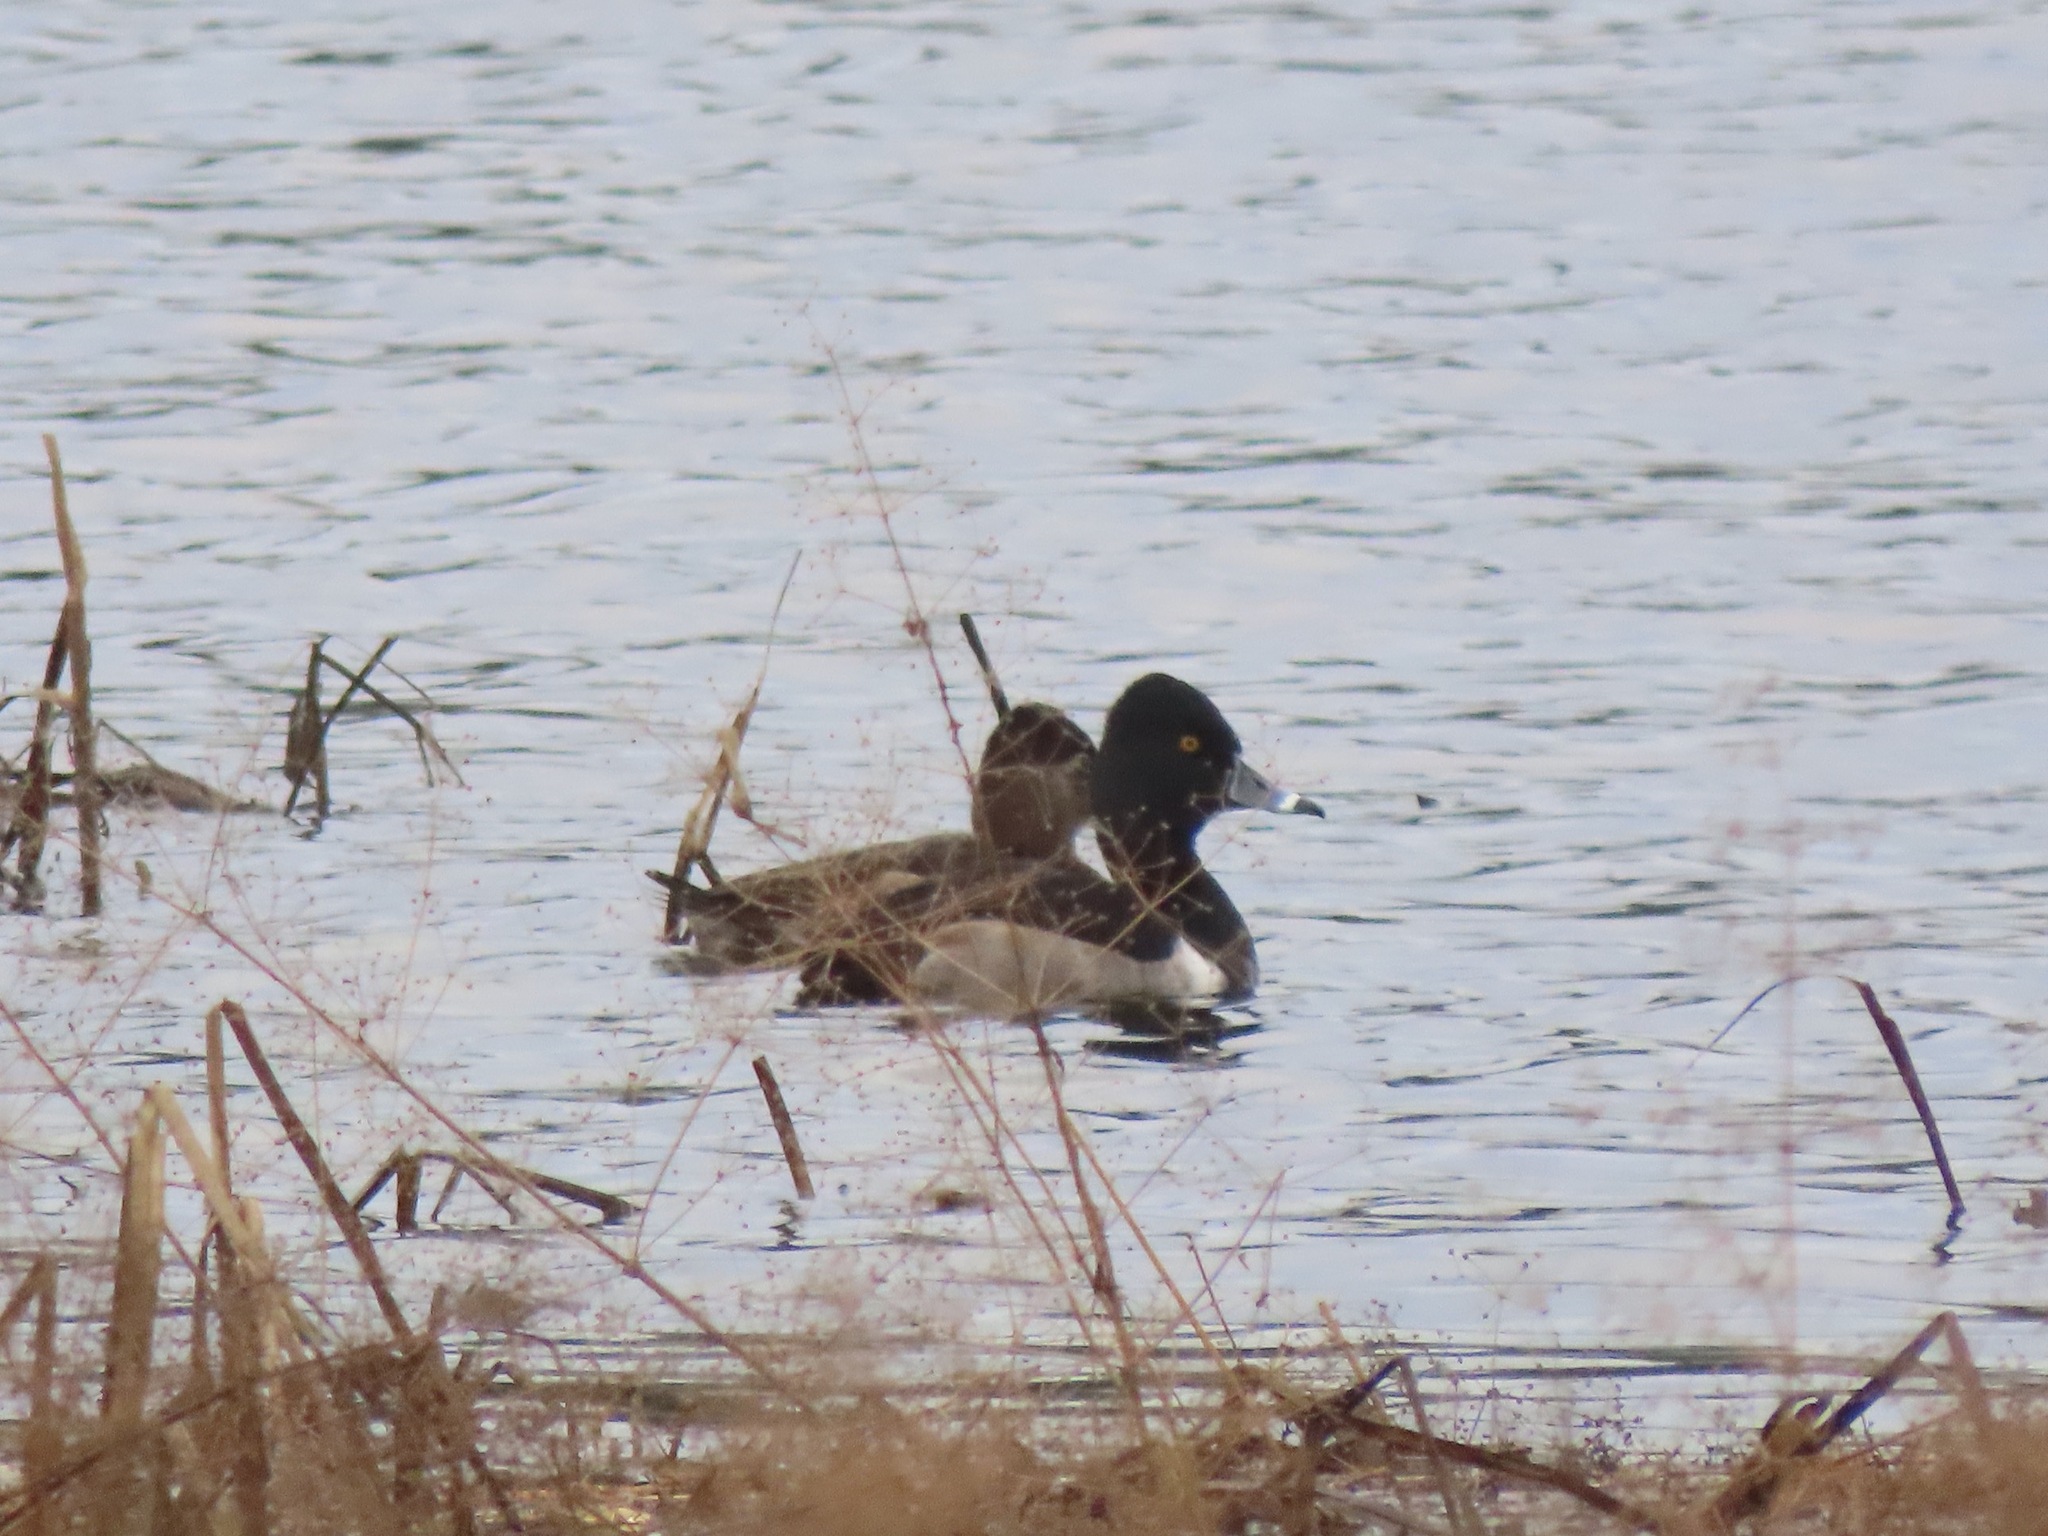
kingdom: Animalia
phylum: Chordata
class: Aves
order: Anseriformes
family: Anatidae
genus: Aythya
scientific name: Aythya collaris
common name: Ring-necked duck
